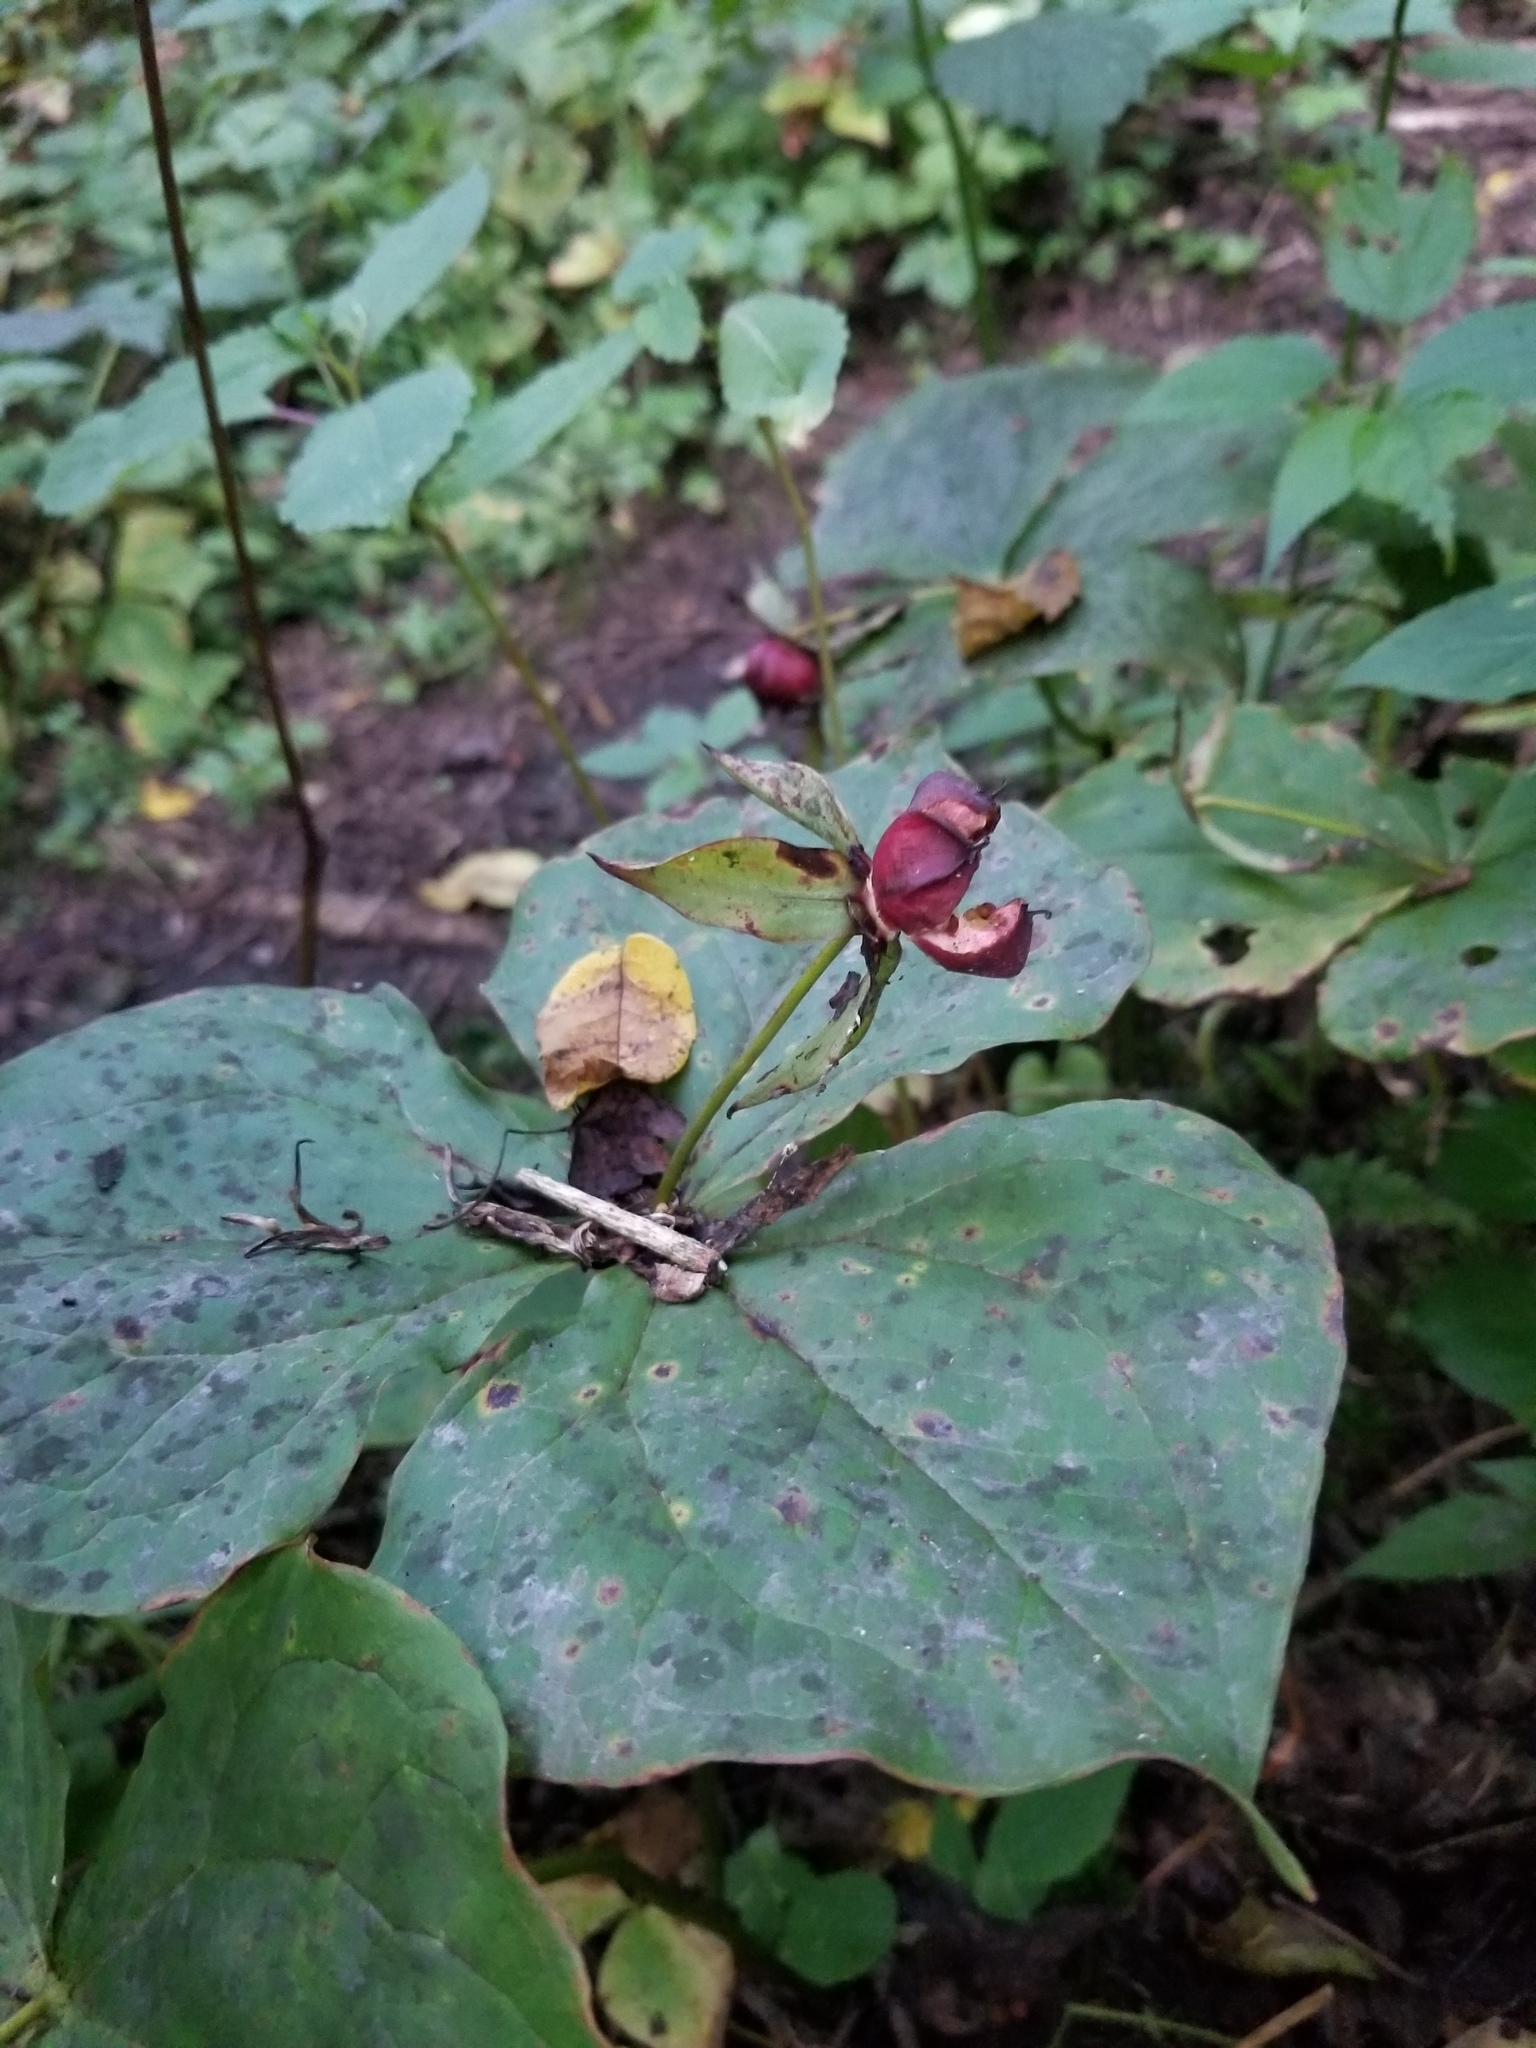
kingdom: Plantae
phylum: Tracheophyta
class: Liliopsida
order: Liliales
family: Melanthiaceae
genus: Trillium
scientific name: Trillium erectum
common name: Purple trillium
